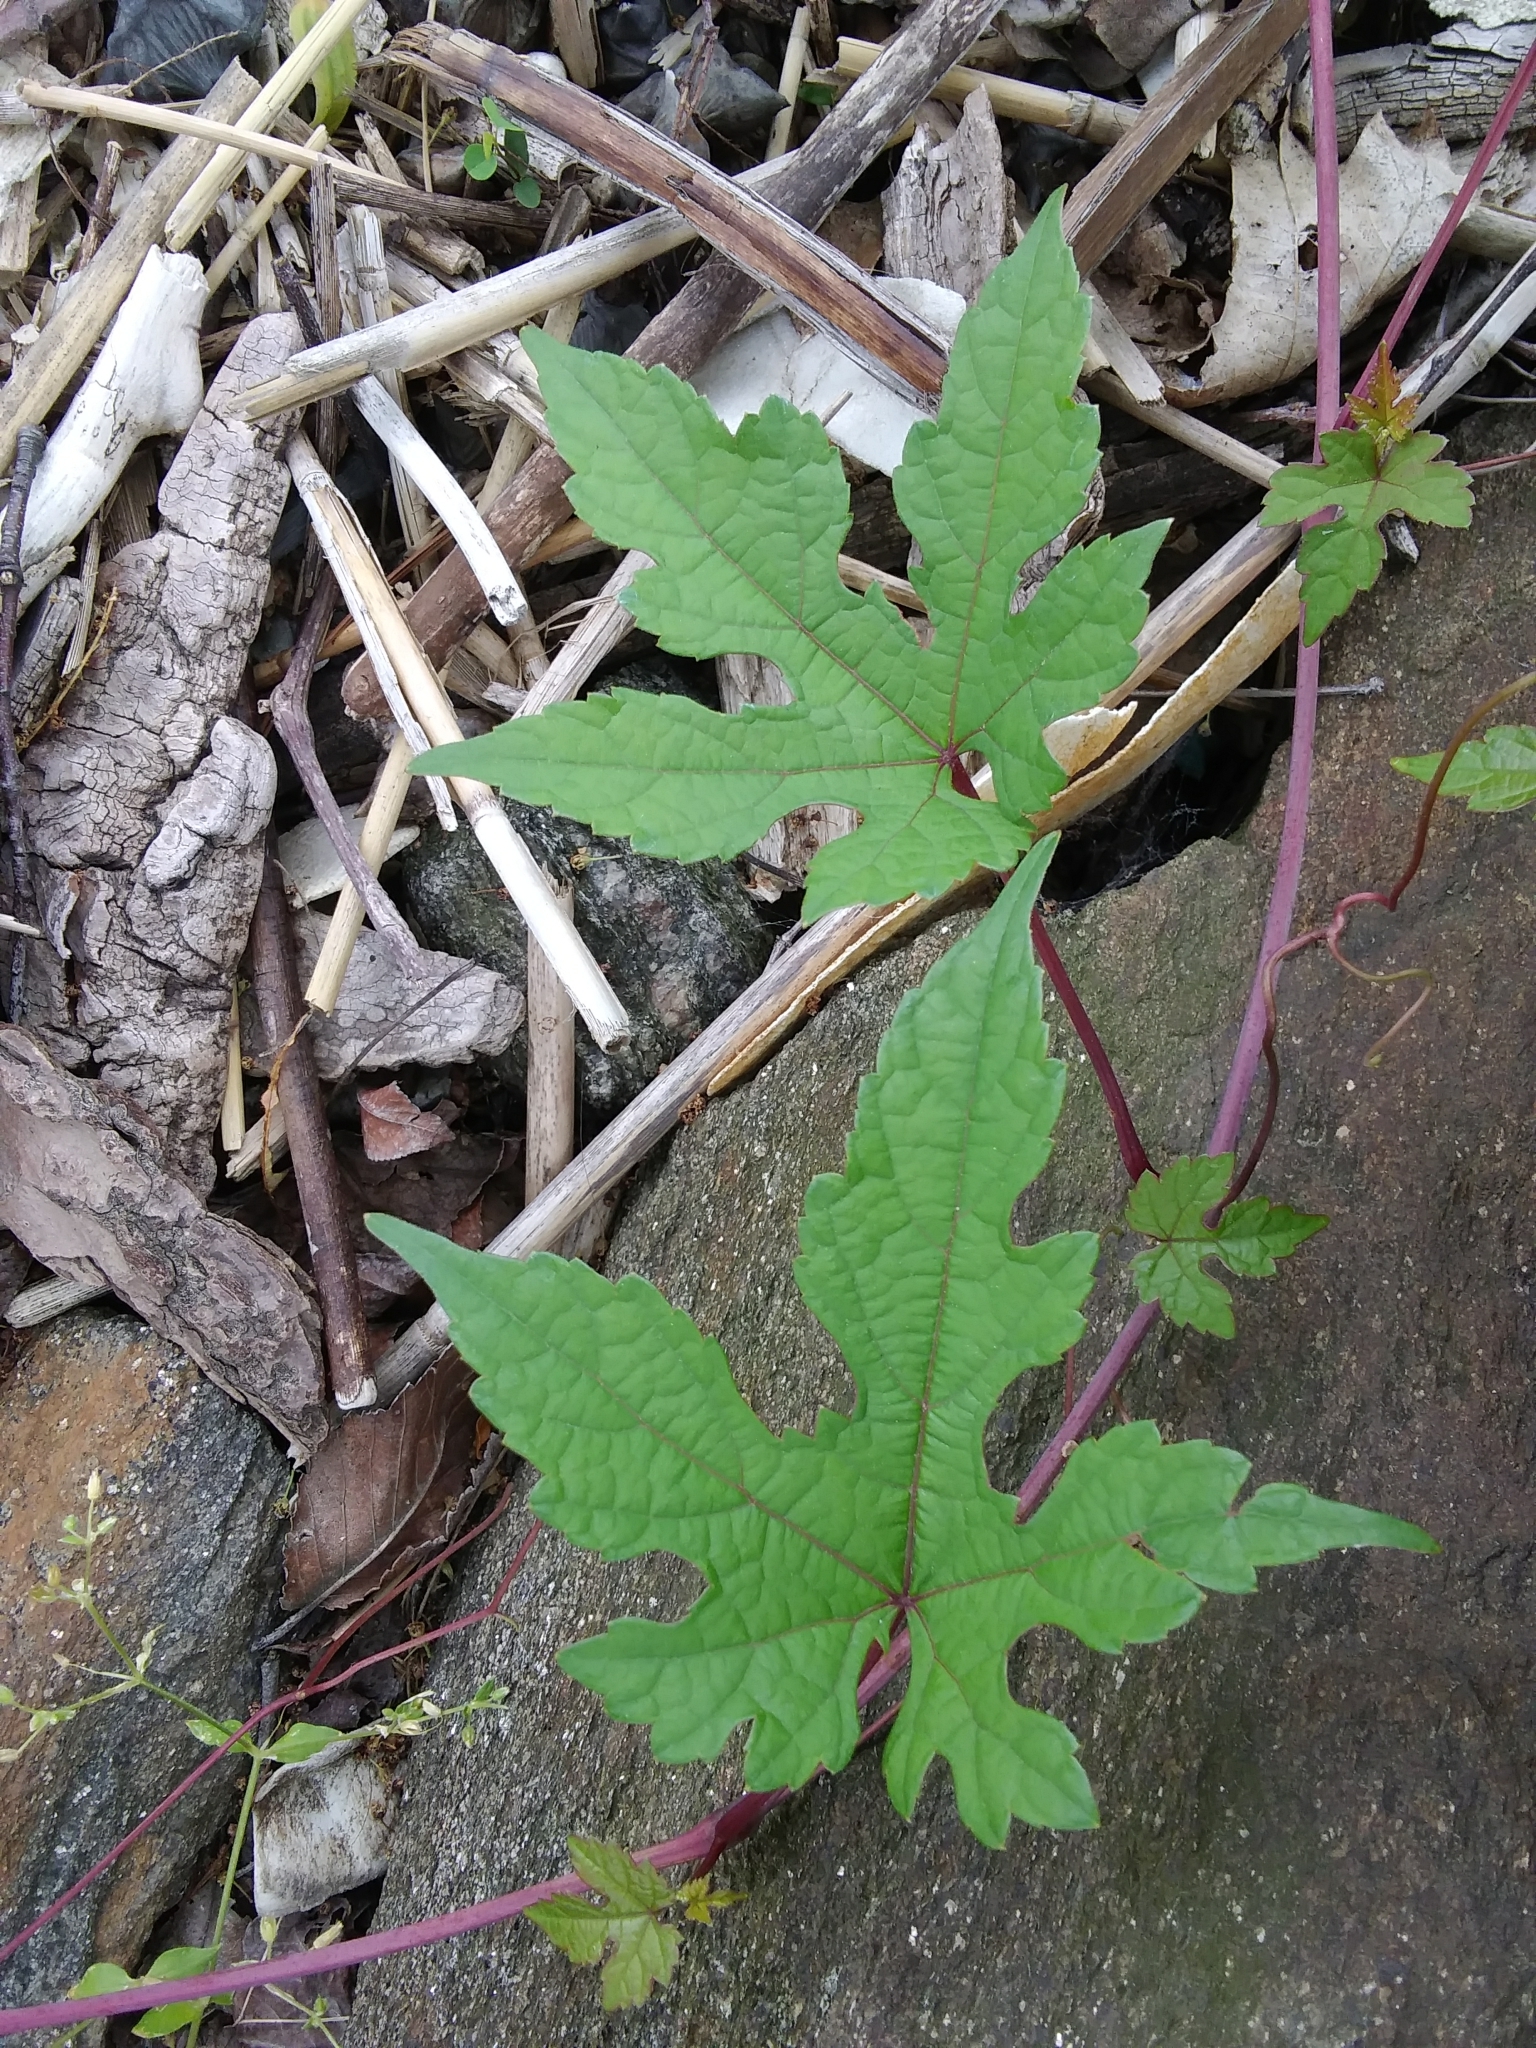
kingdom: Plantae
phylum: Tracheophyta
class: Magnoliopsida
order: Vitales
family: Vitaceae
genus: Ampelopsis
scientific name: Ampelopsis glandulosa
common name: Amur peppervine
